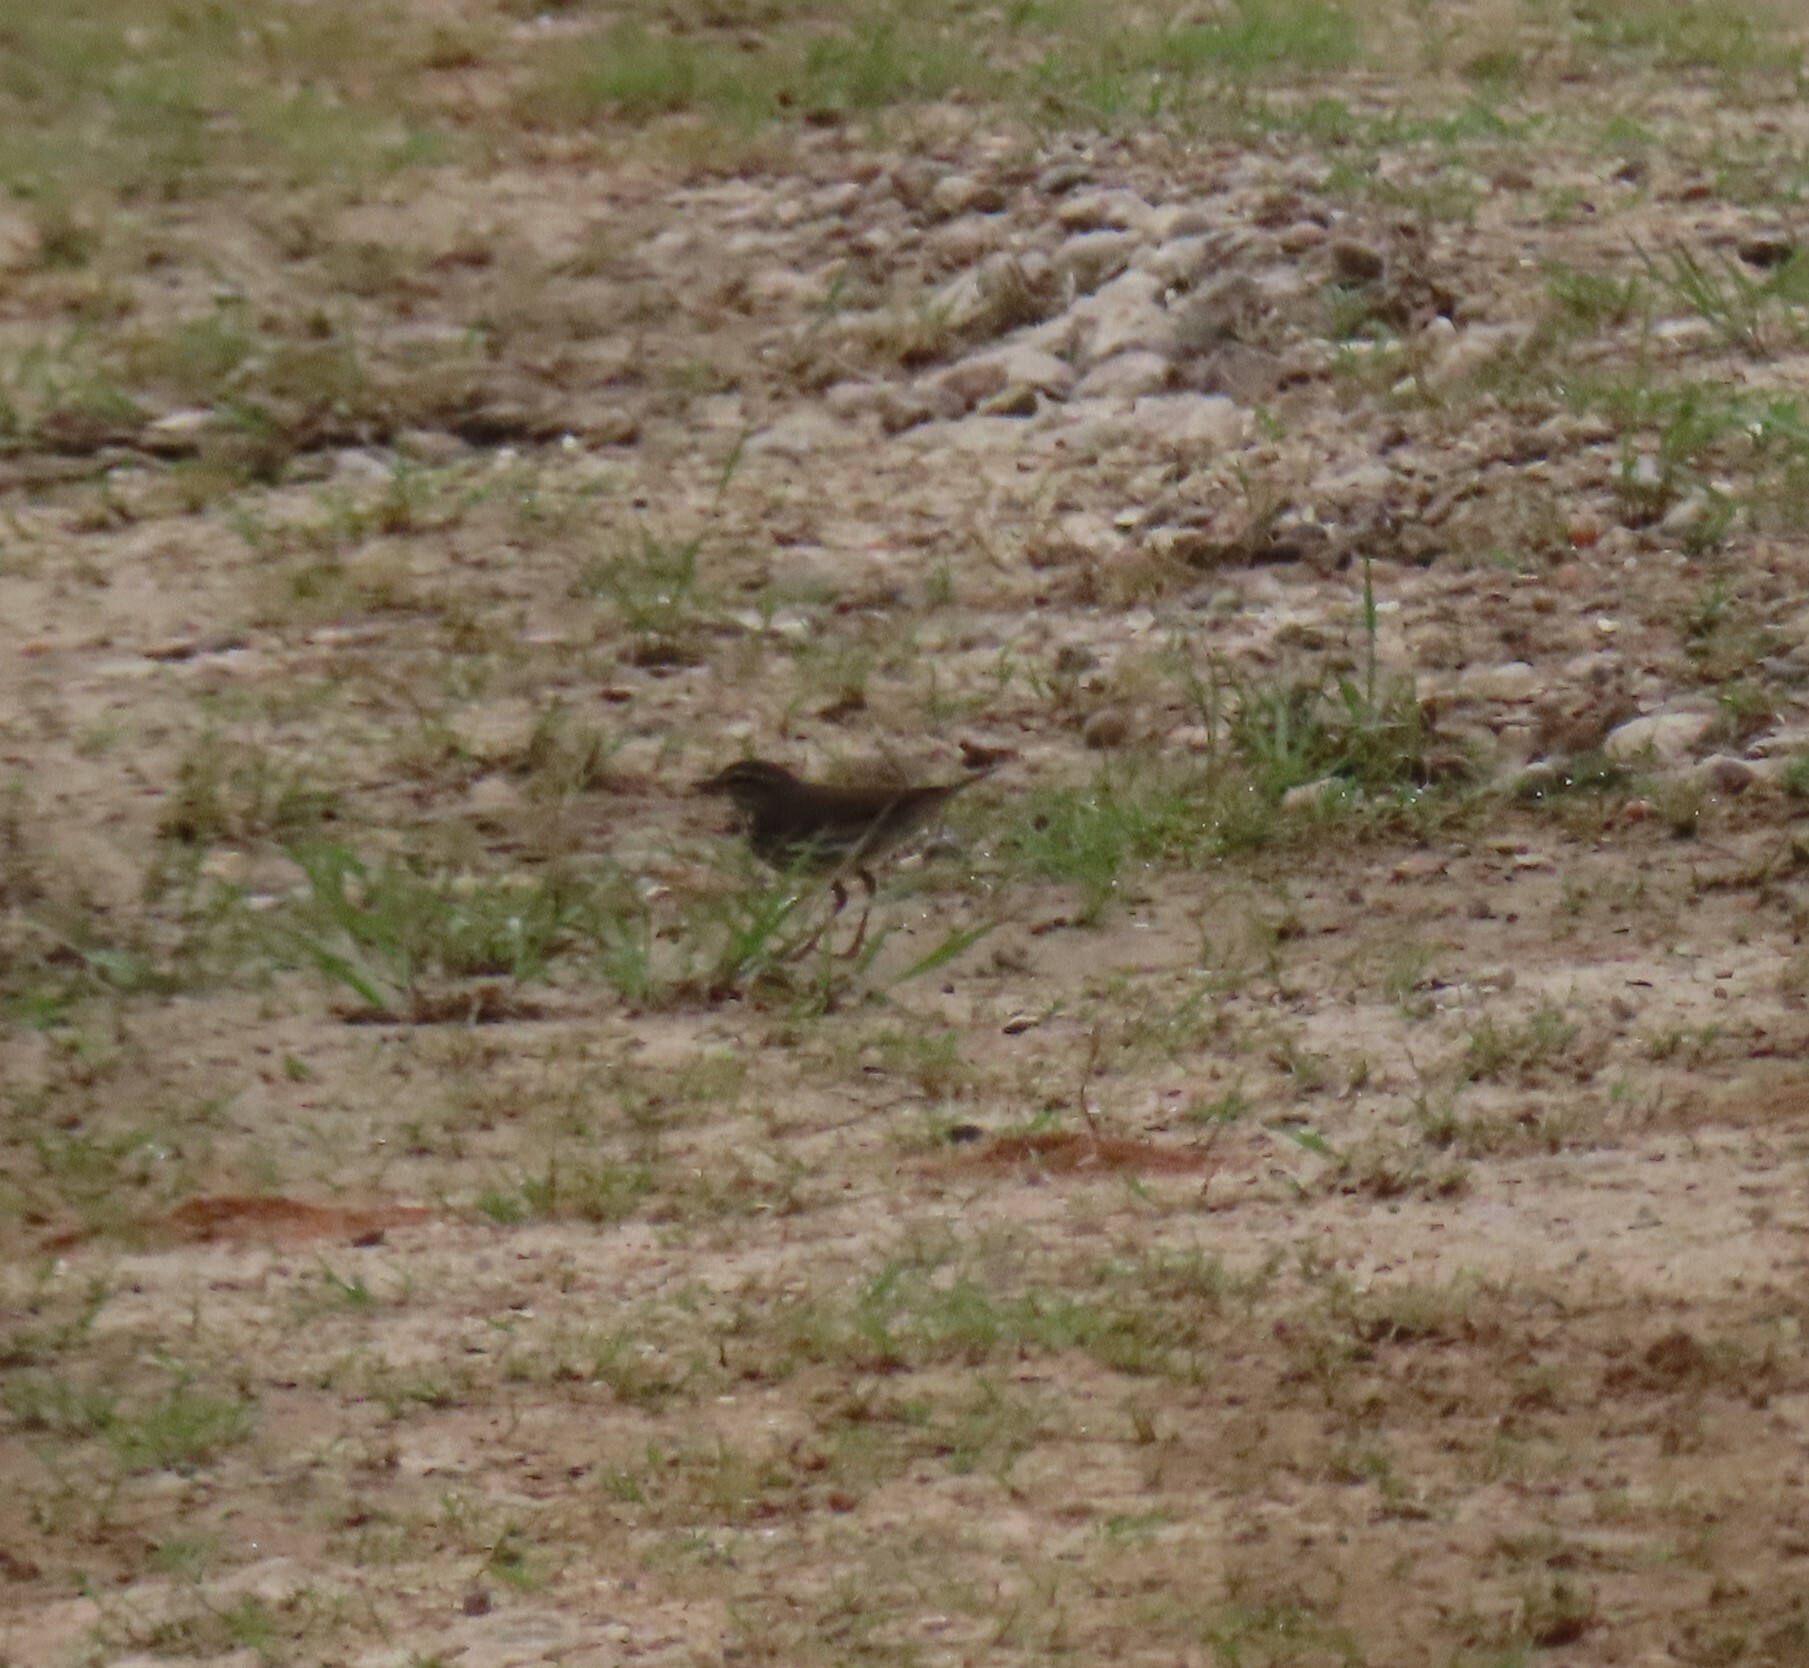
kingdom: Animalia
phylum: Chordata
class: Aves
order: Passeriformes
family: Parulidae
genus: Parkesia
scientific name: Parkesia noveboracensis
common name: Northern waterthrush
